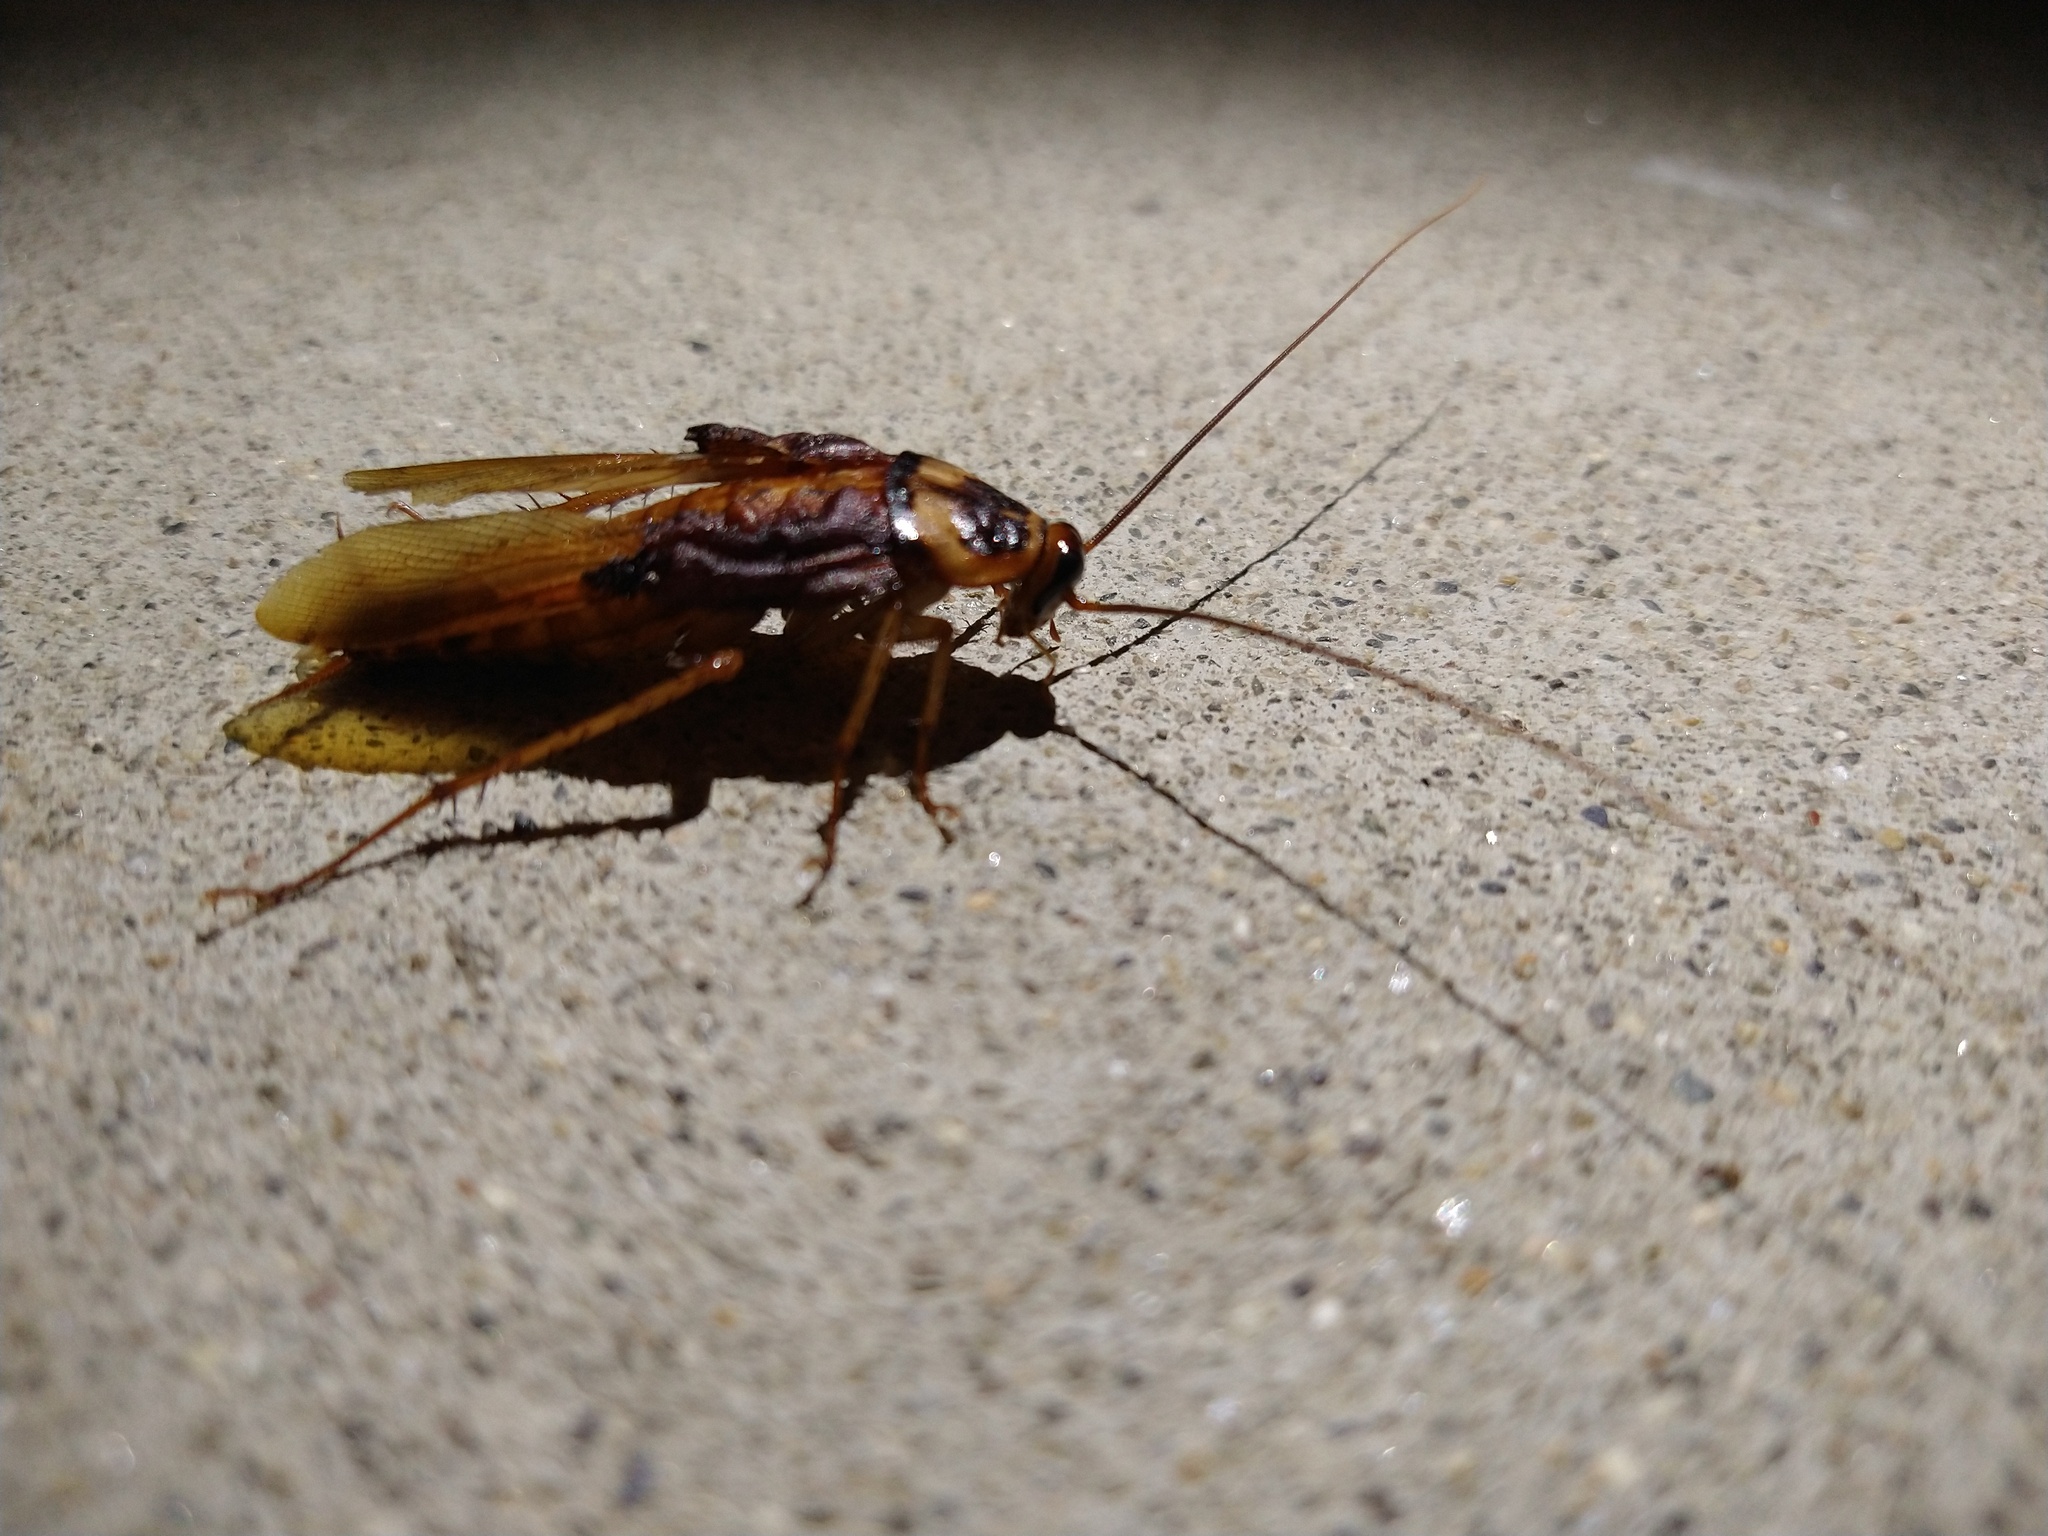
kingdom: Animalia
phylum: Arthropoda
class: Insecta
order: Blattodea
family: Blattidae
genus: Periplaneta
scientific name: Periplaneta americana
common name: American cockroach
